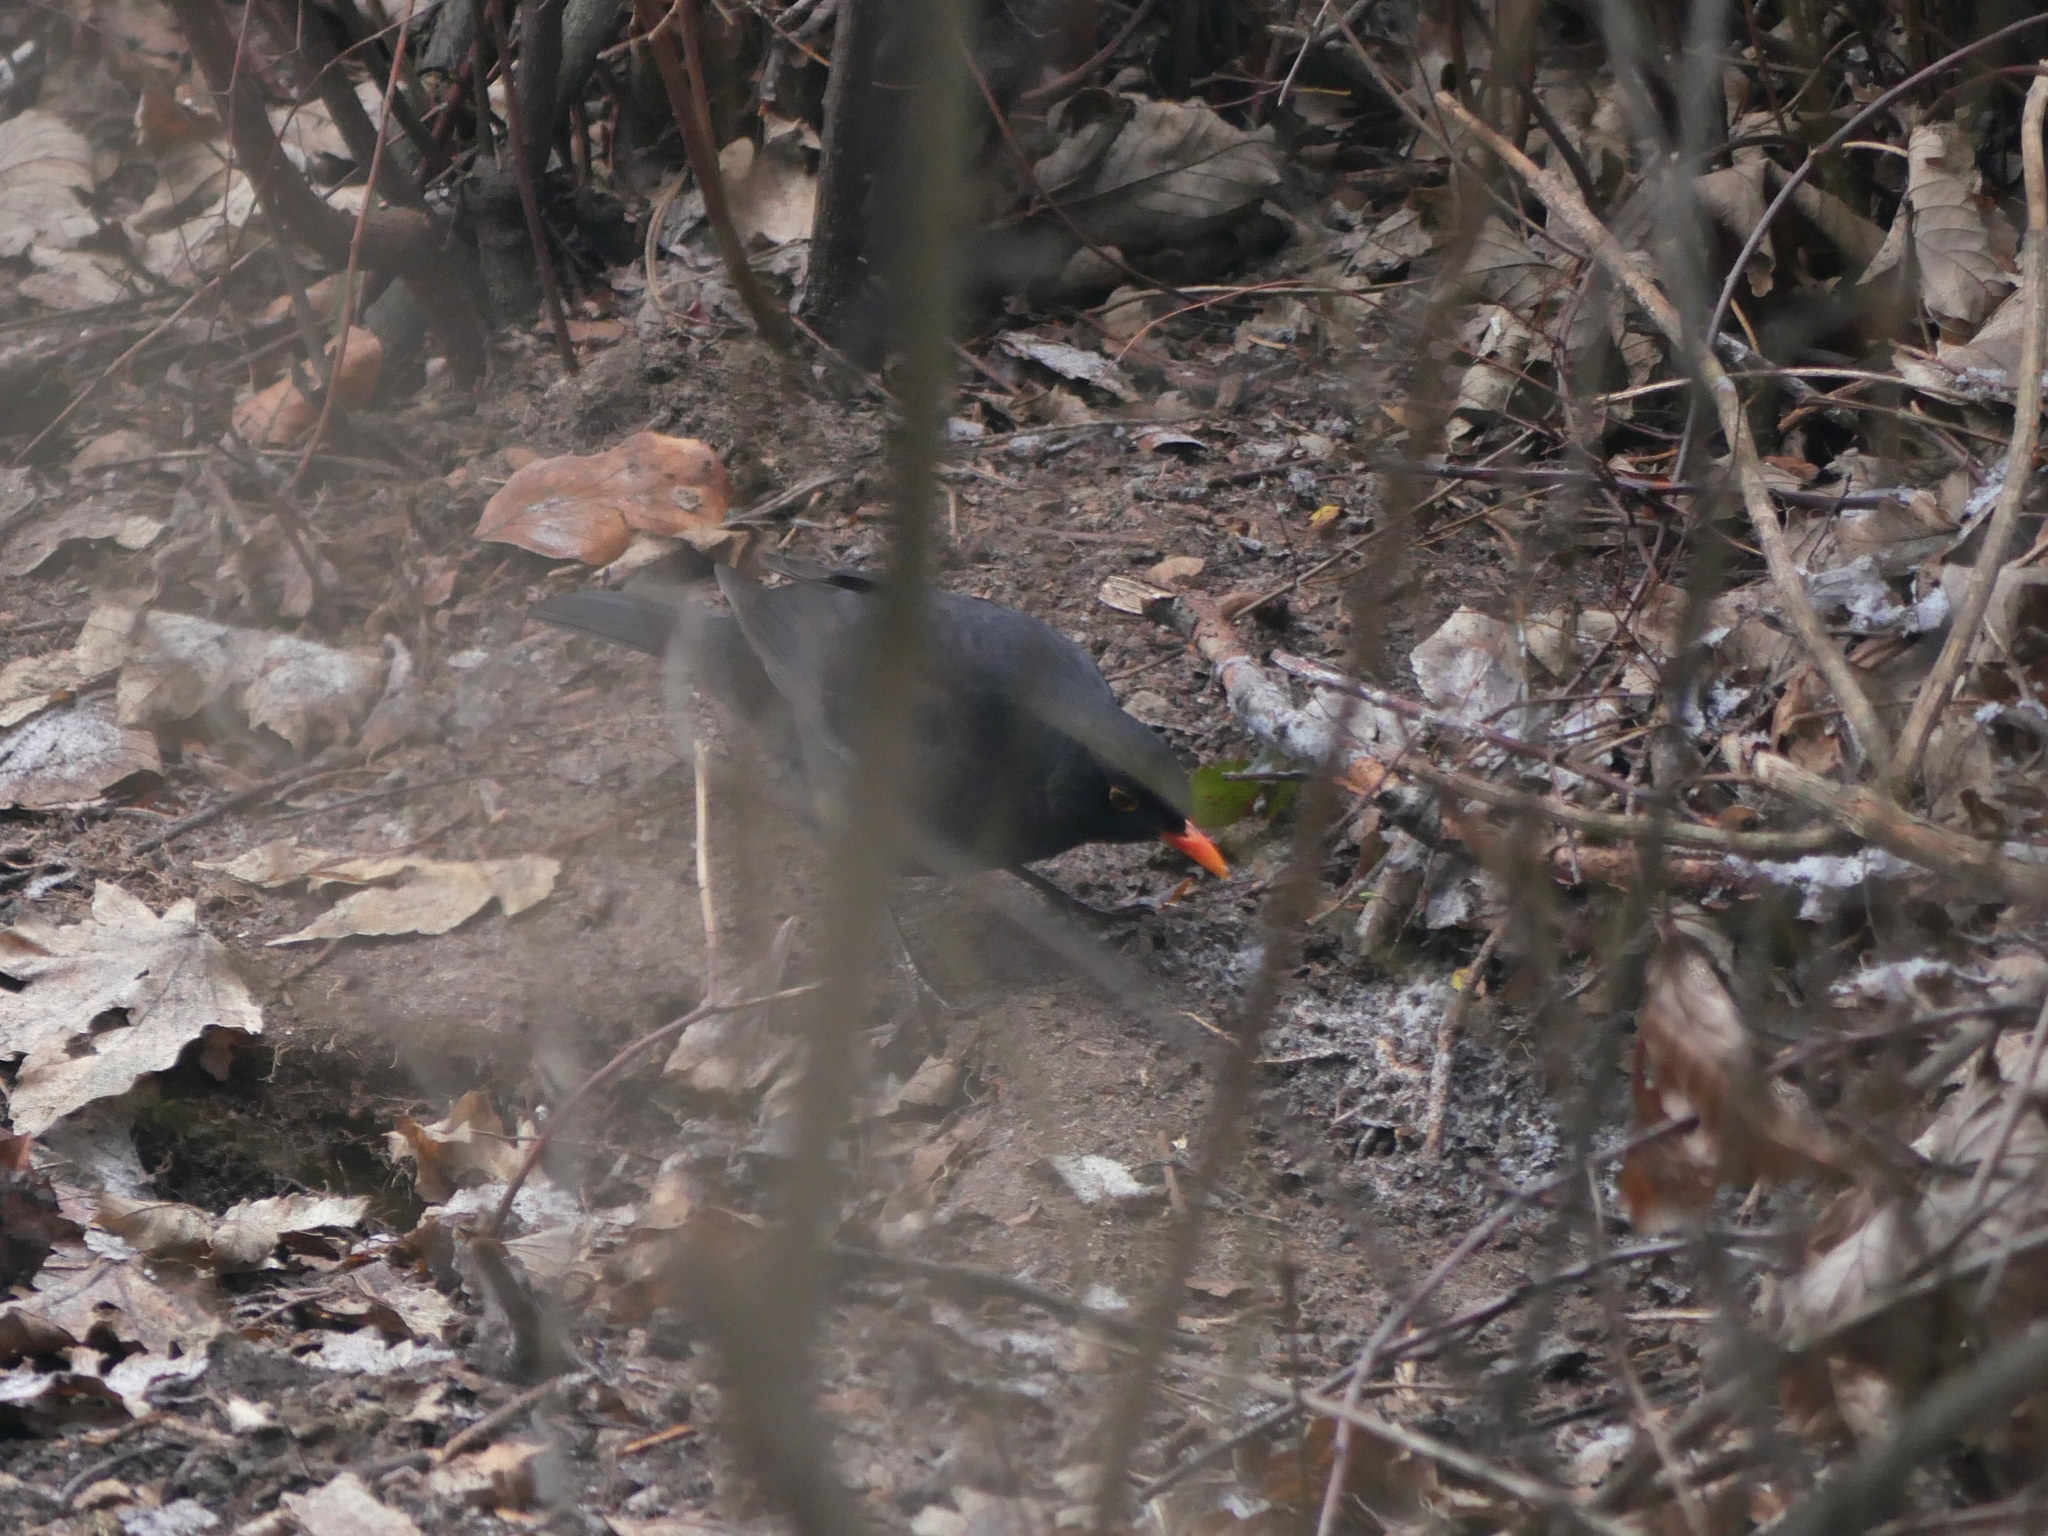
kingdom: Animalia
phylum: Chordata
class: Aves
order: Passeriformes
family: Turdidae
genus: Turdus
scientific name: Turdus merula
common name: Common blackbird
